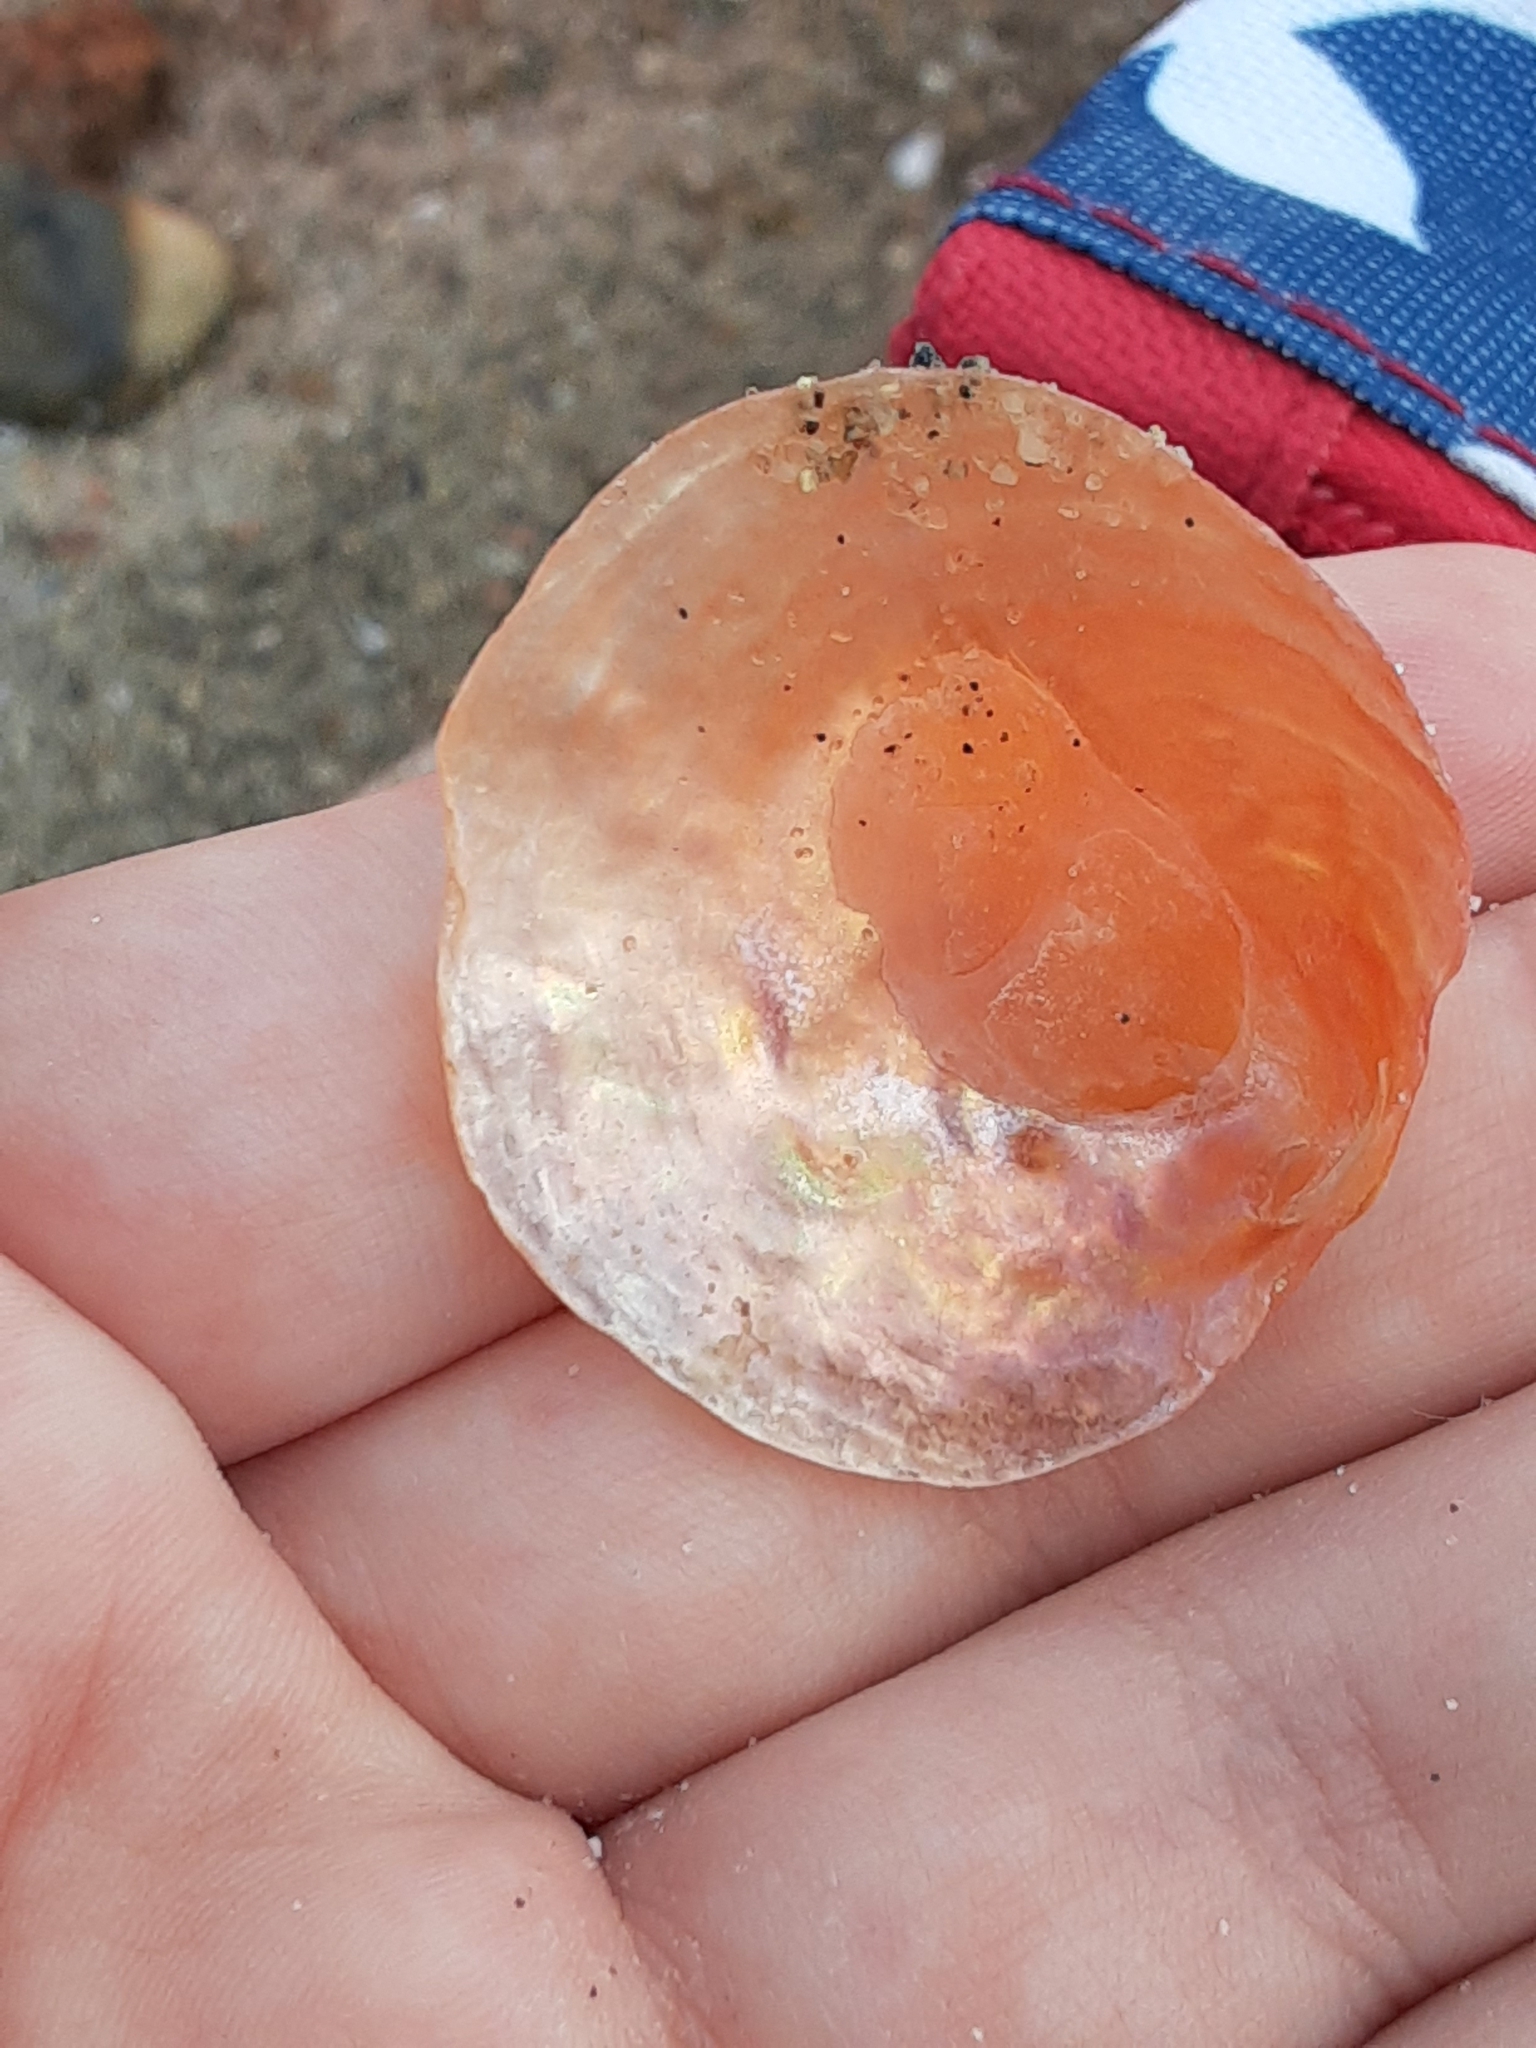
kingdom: Animalia
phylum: Mollusca
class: Bivalvia
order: Pectinida
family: Anomiidae
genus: Anomia
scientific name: Anomia simplex
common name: Common jingle shell
